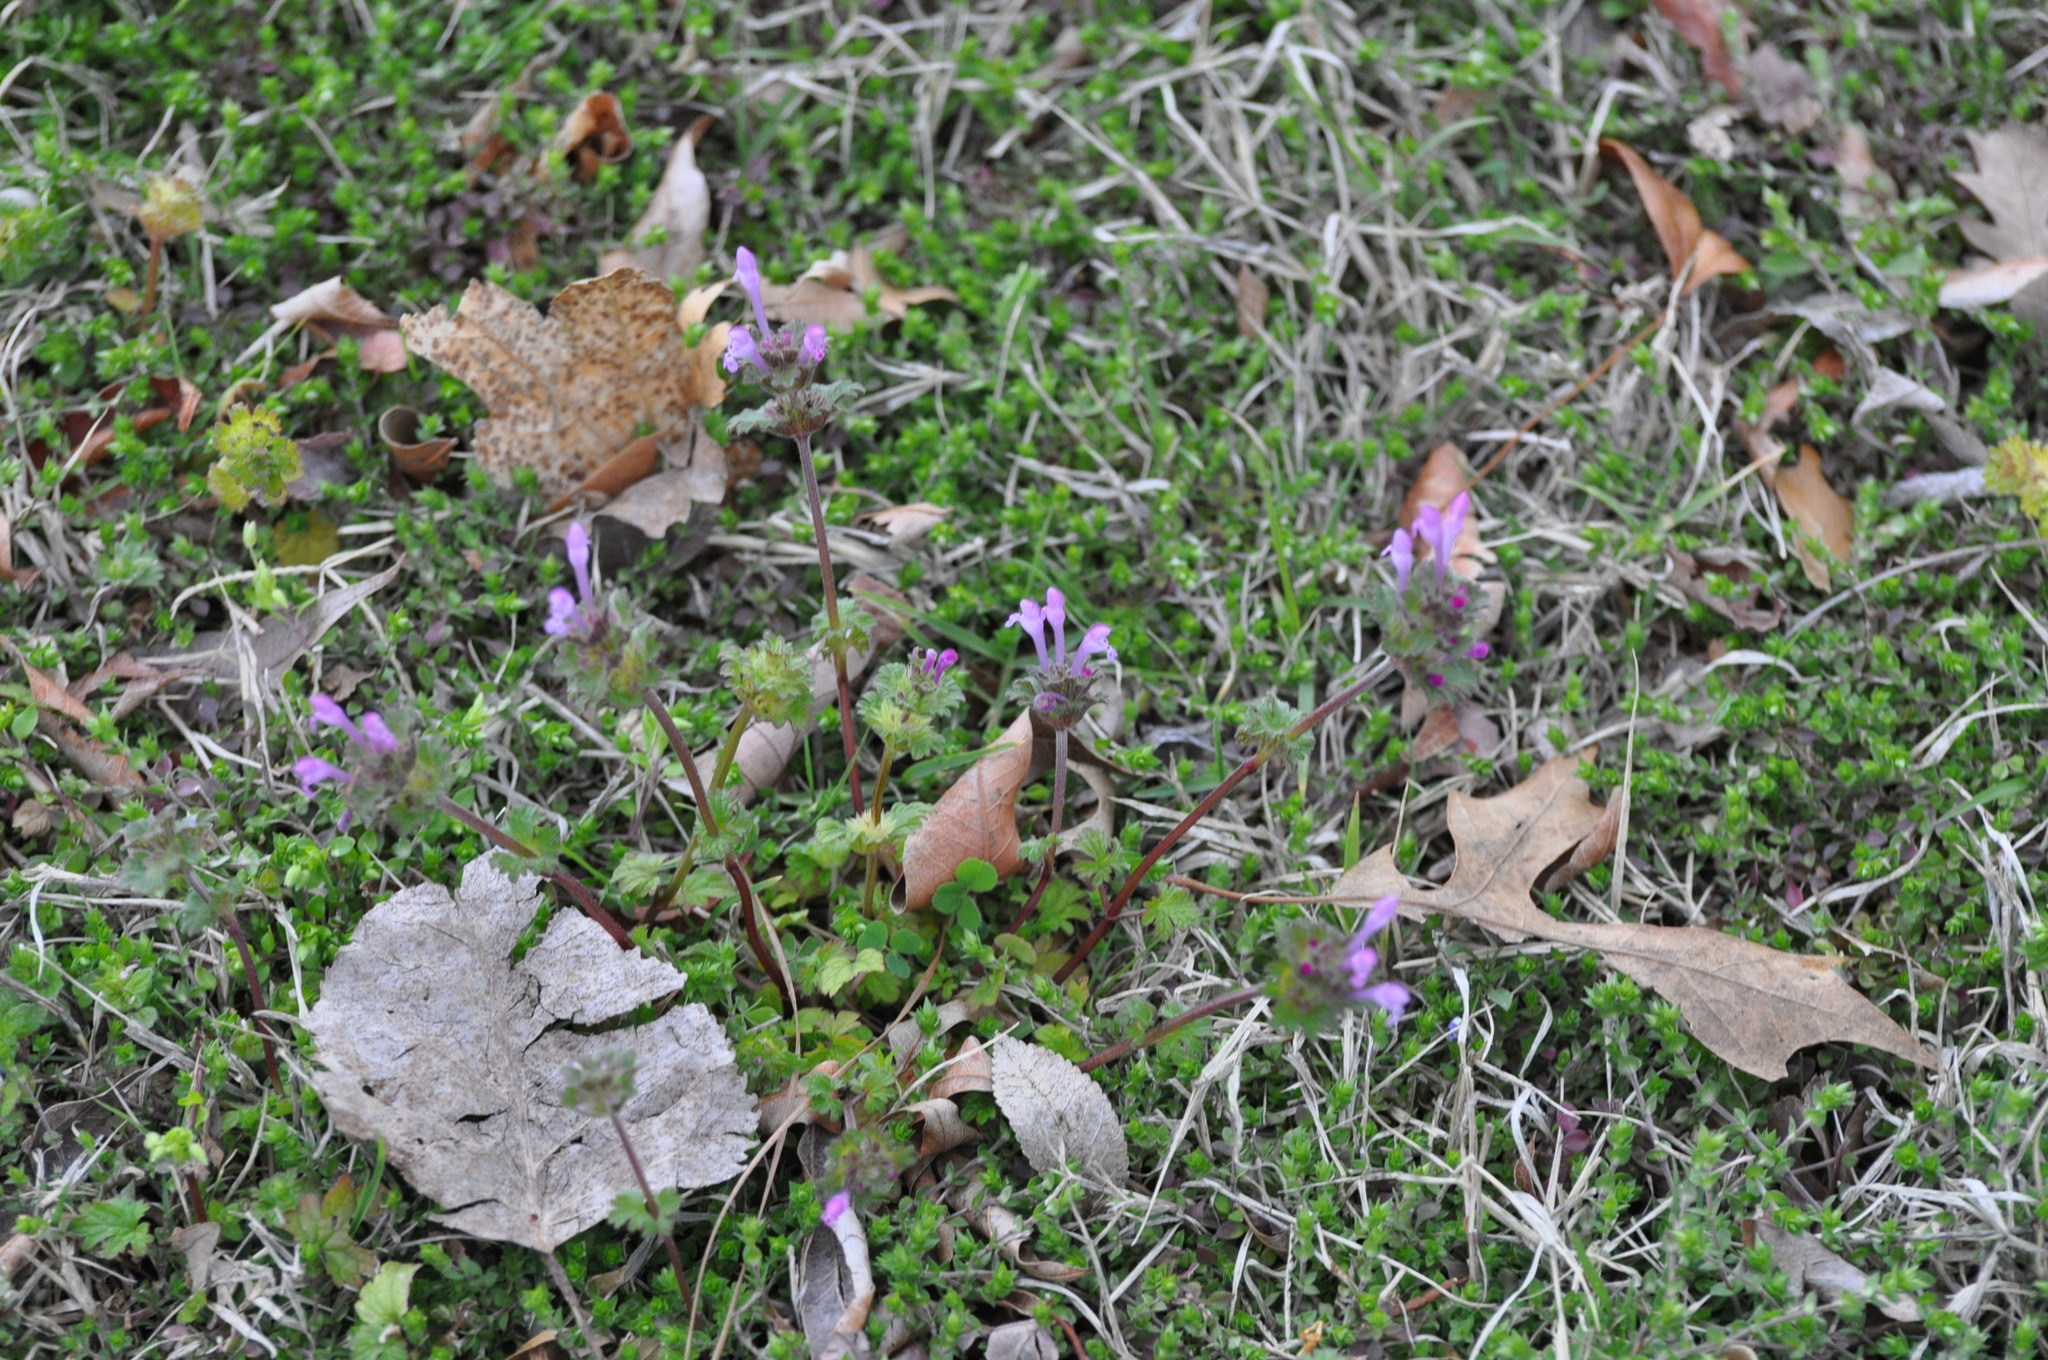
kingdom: Plantae
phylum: Tracheophyta
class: Magnoliopsida
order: Lamiales
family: Lamiaceae
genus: Lamium
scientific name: Lamium amplexicaule
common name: Henbit dead-nettle
